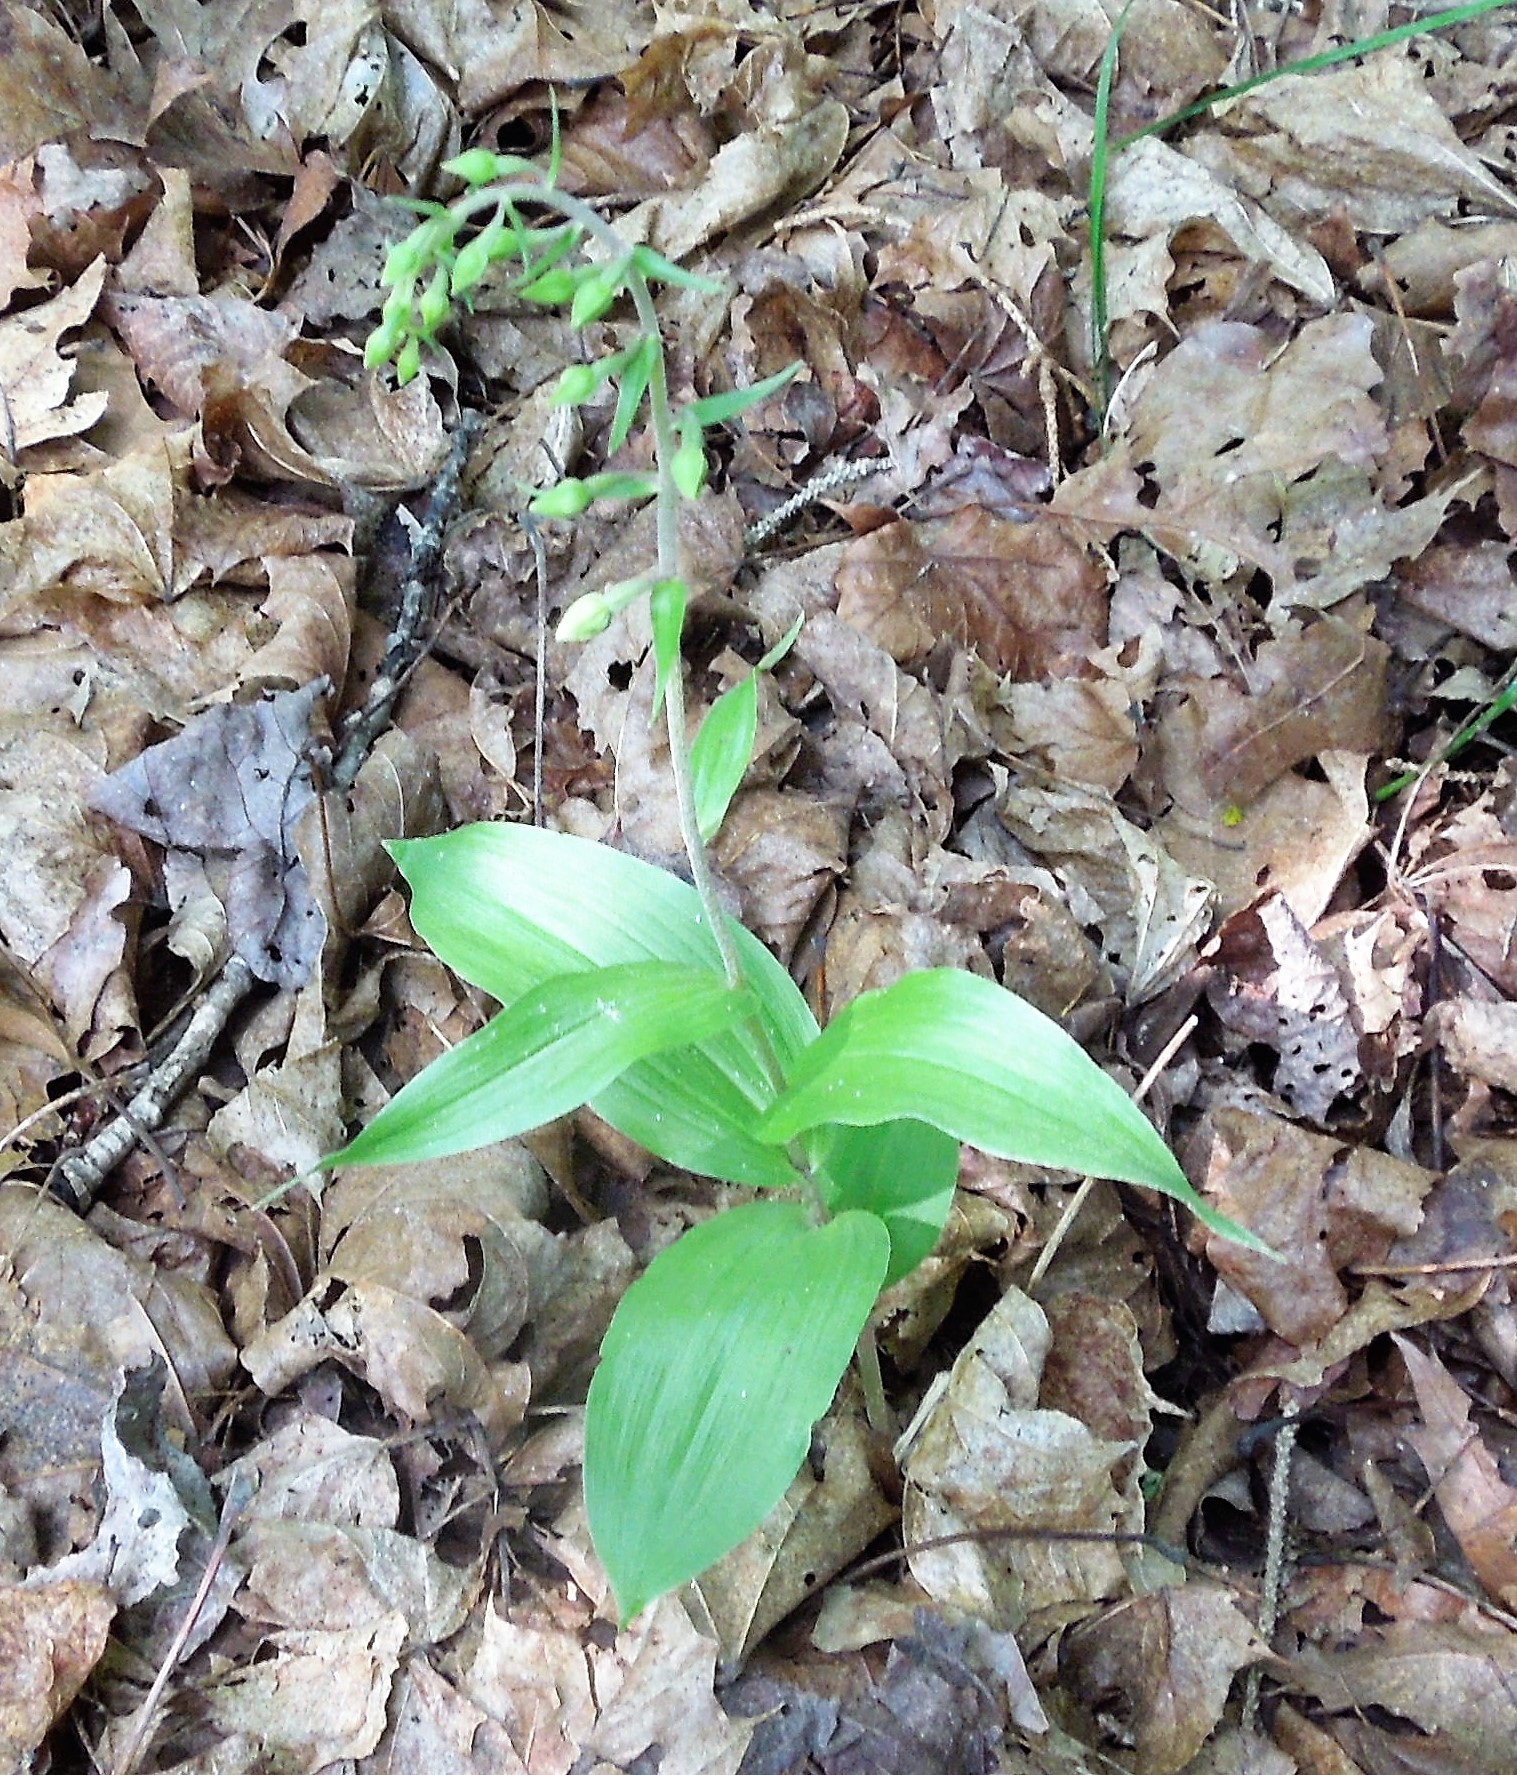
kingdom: Plantae
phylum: Tracheophyta
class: Liliopsida
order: Asparagales
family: Orchidaceae
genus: Epipactis
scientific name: Epipactis helleborine
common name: Broad-leaved helleborine
